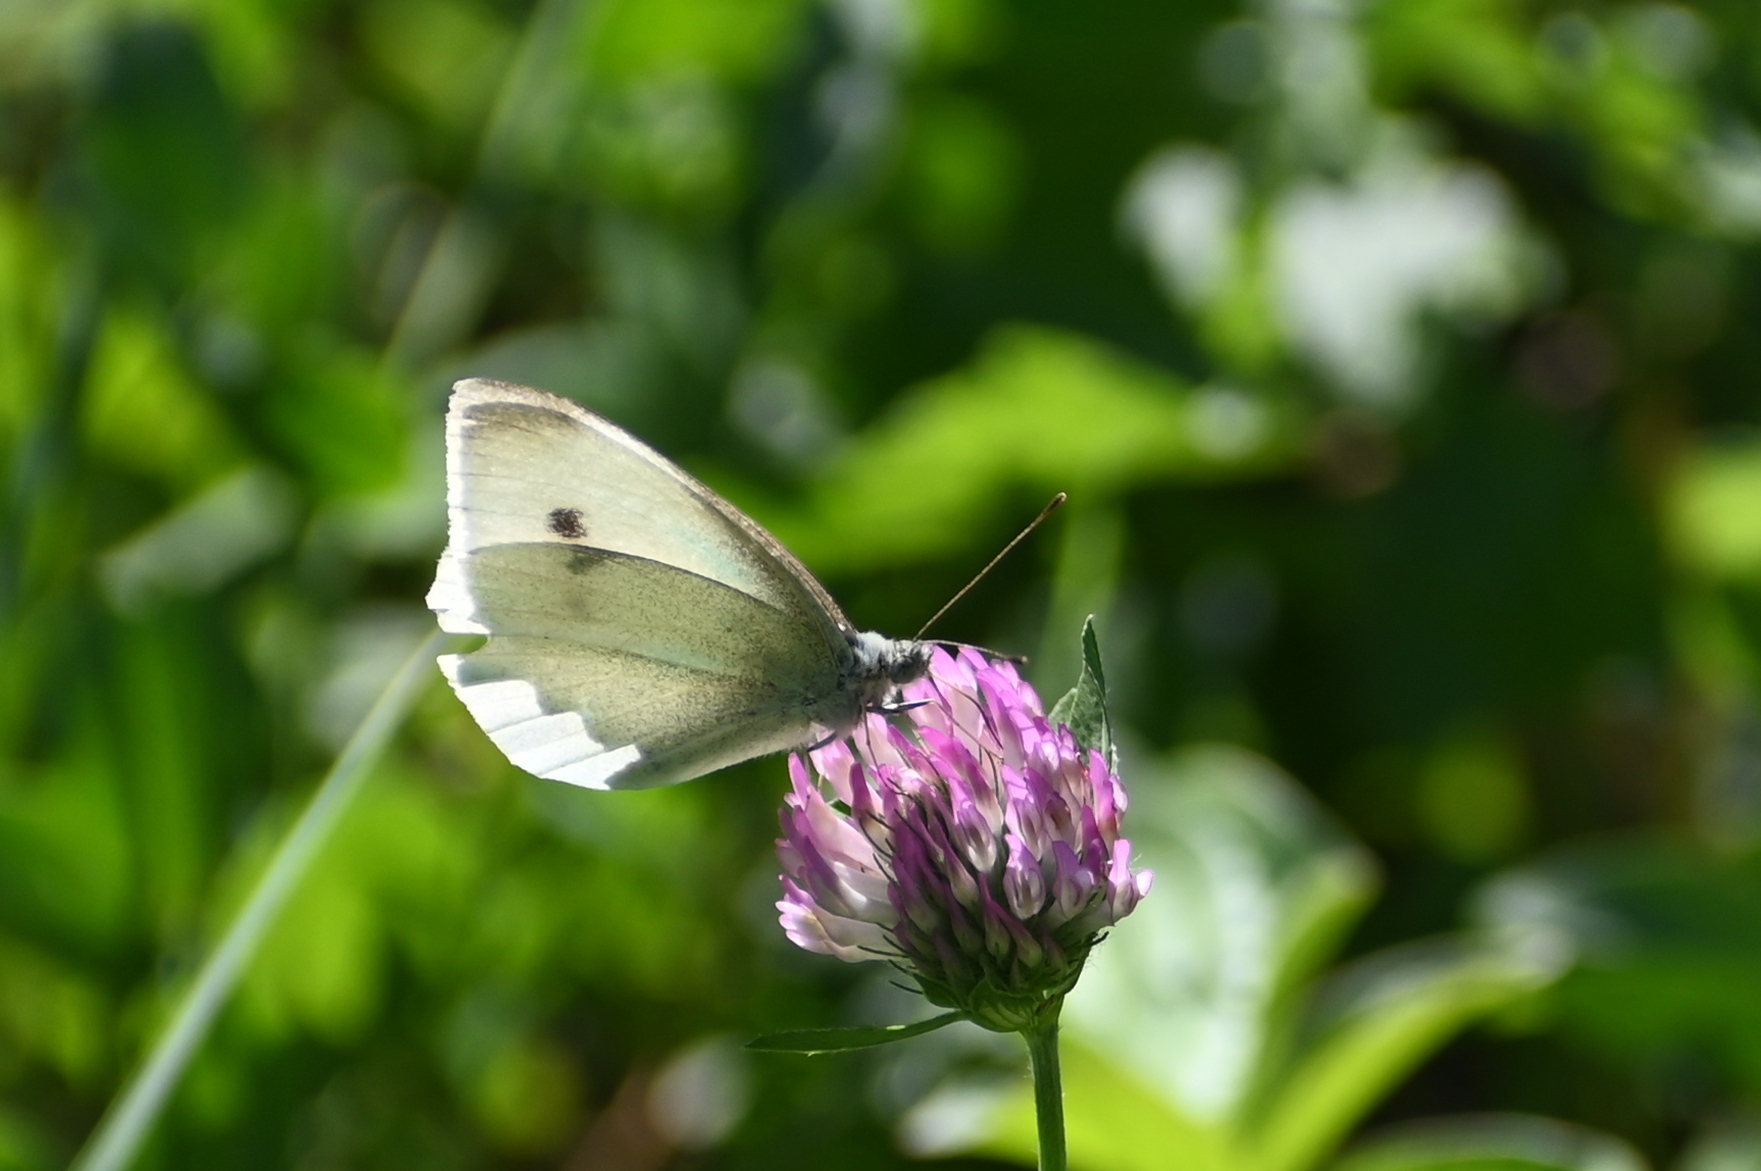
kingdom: Animalia
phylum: Arthropoda
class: Insecta
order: Lepidoptera
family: Pieridae
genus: Pieris
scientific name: Pieris rapae
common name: Small white
